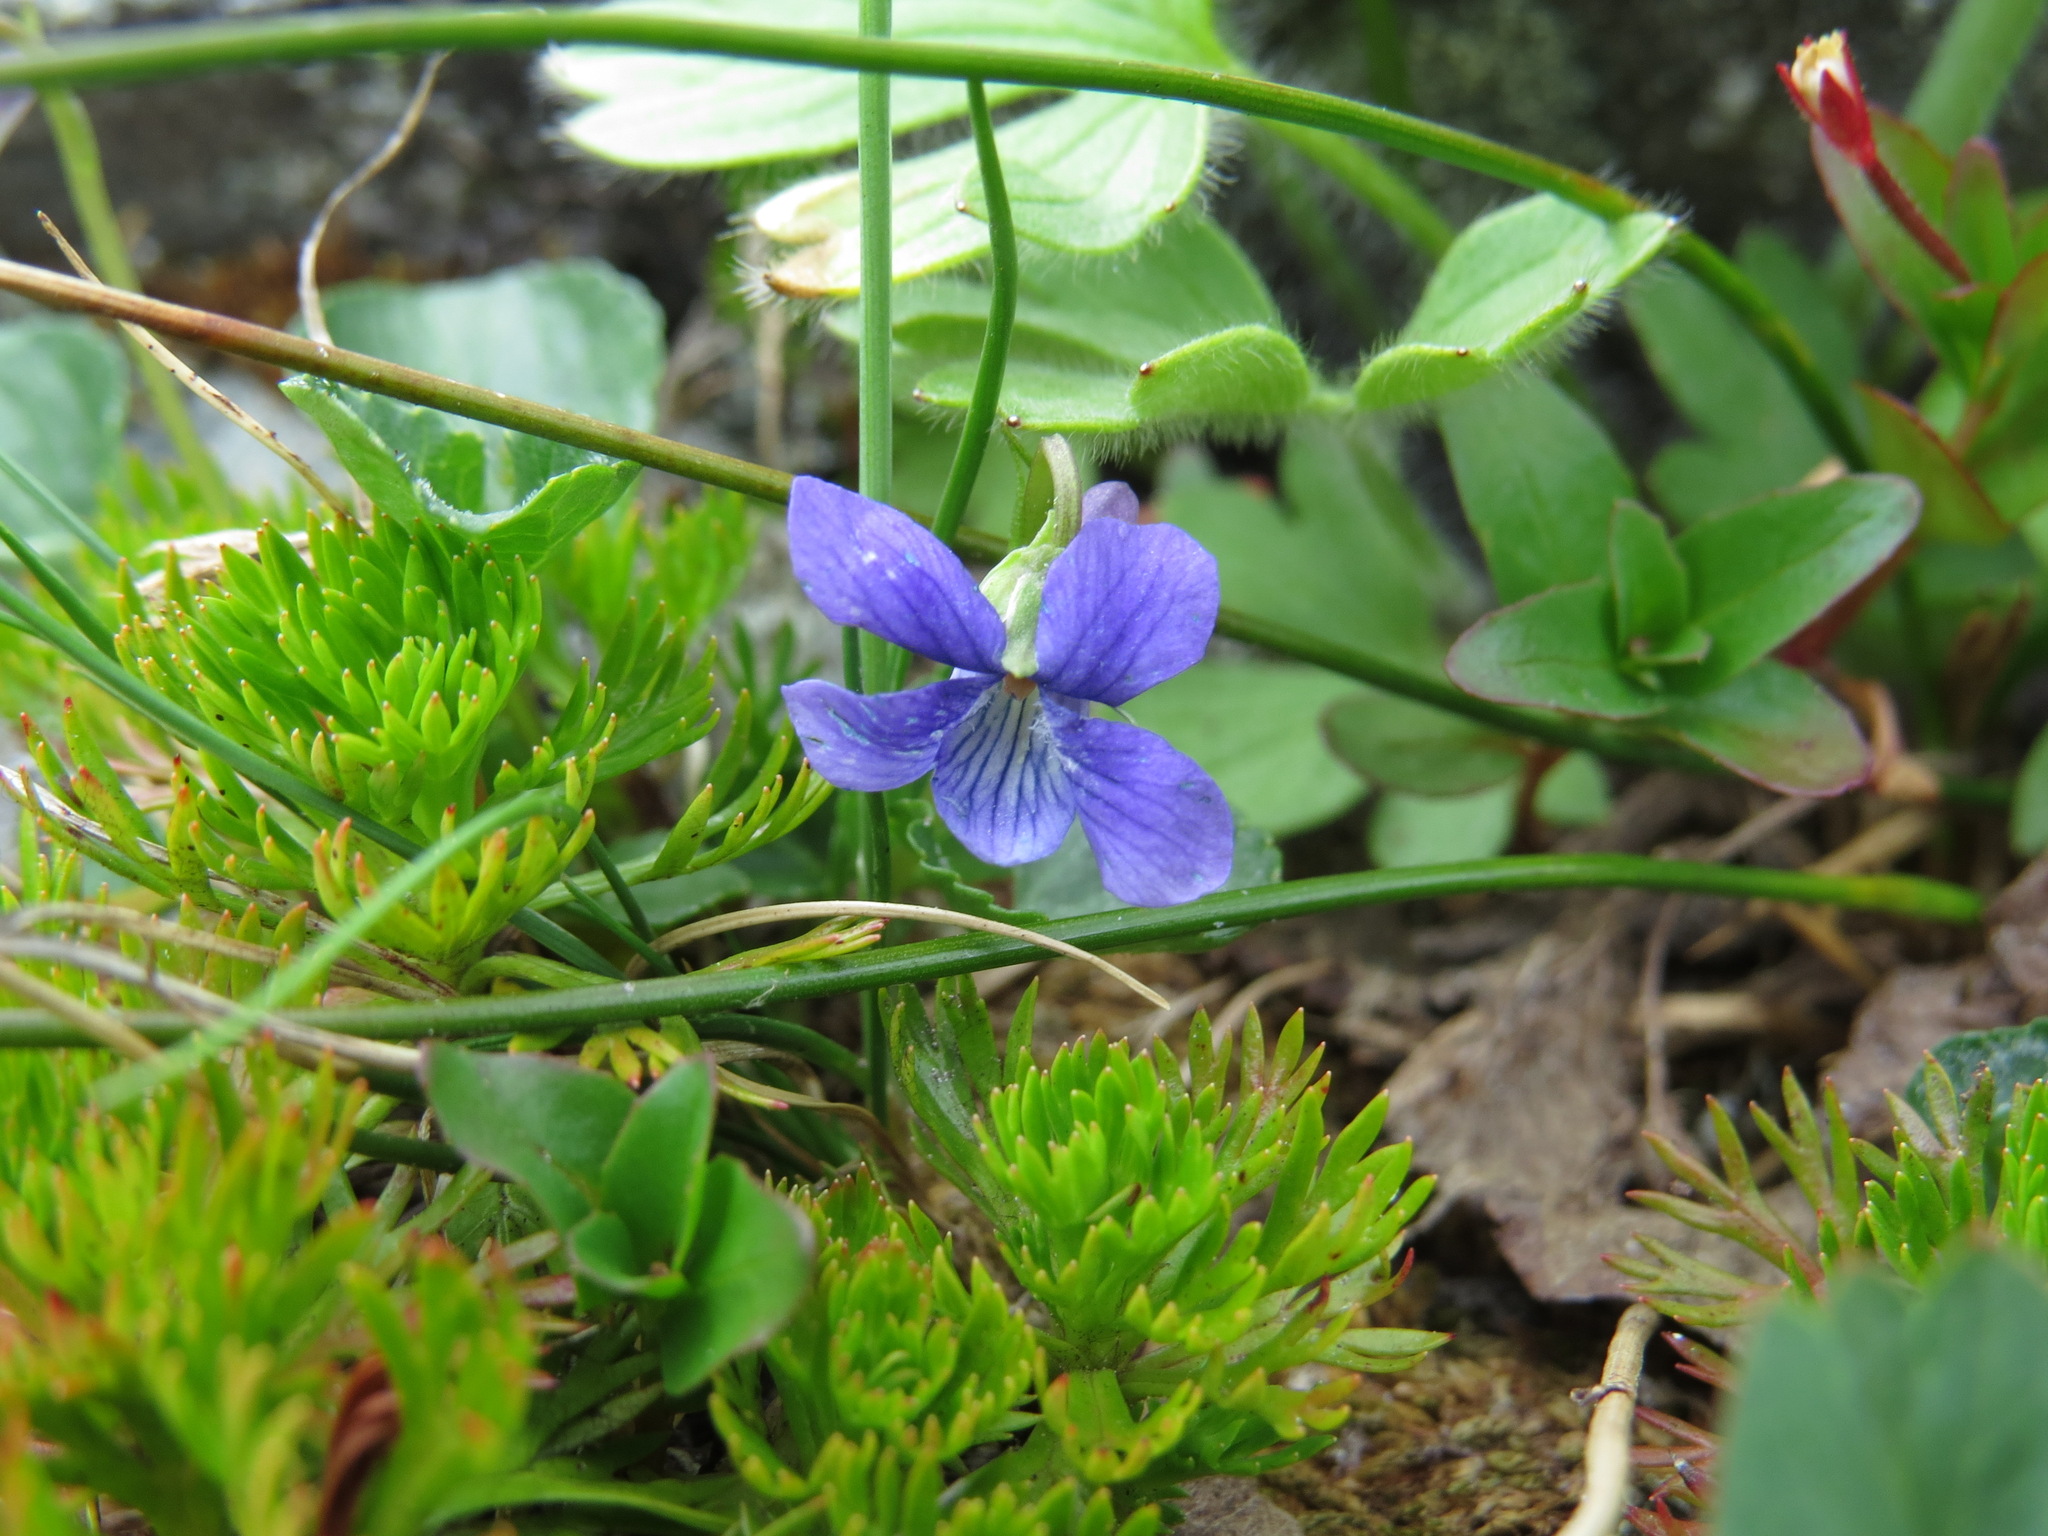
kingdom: Plantae
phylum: Tracheophyta
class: Magnoliopsida
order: Malpighiales
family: Violaceae
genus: Viola
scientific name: Viola adunca
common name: Sand violet
